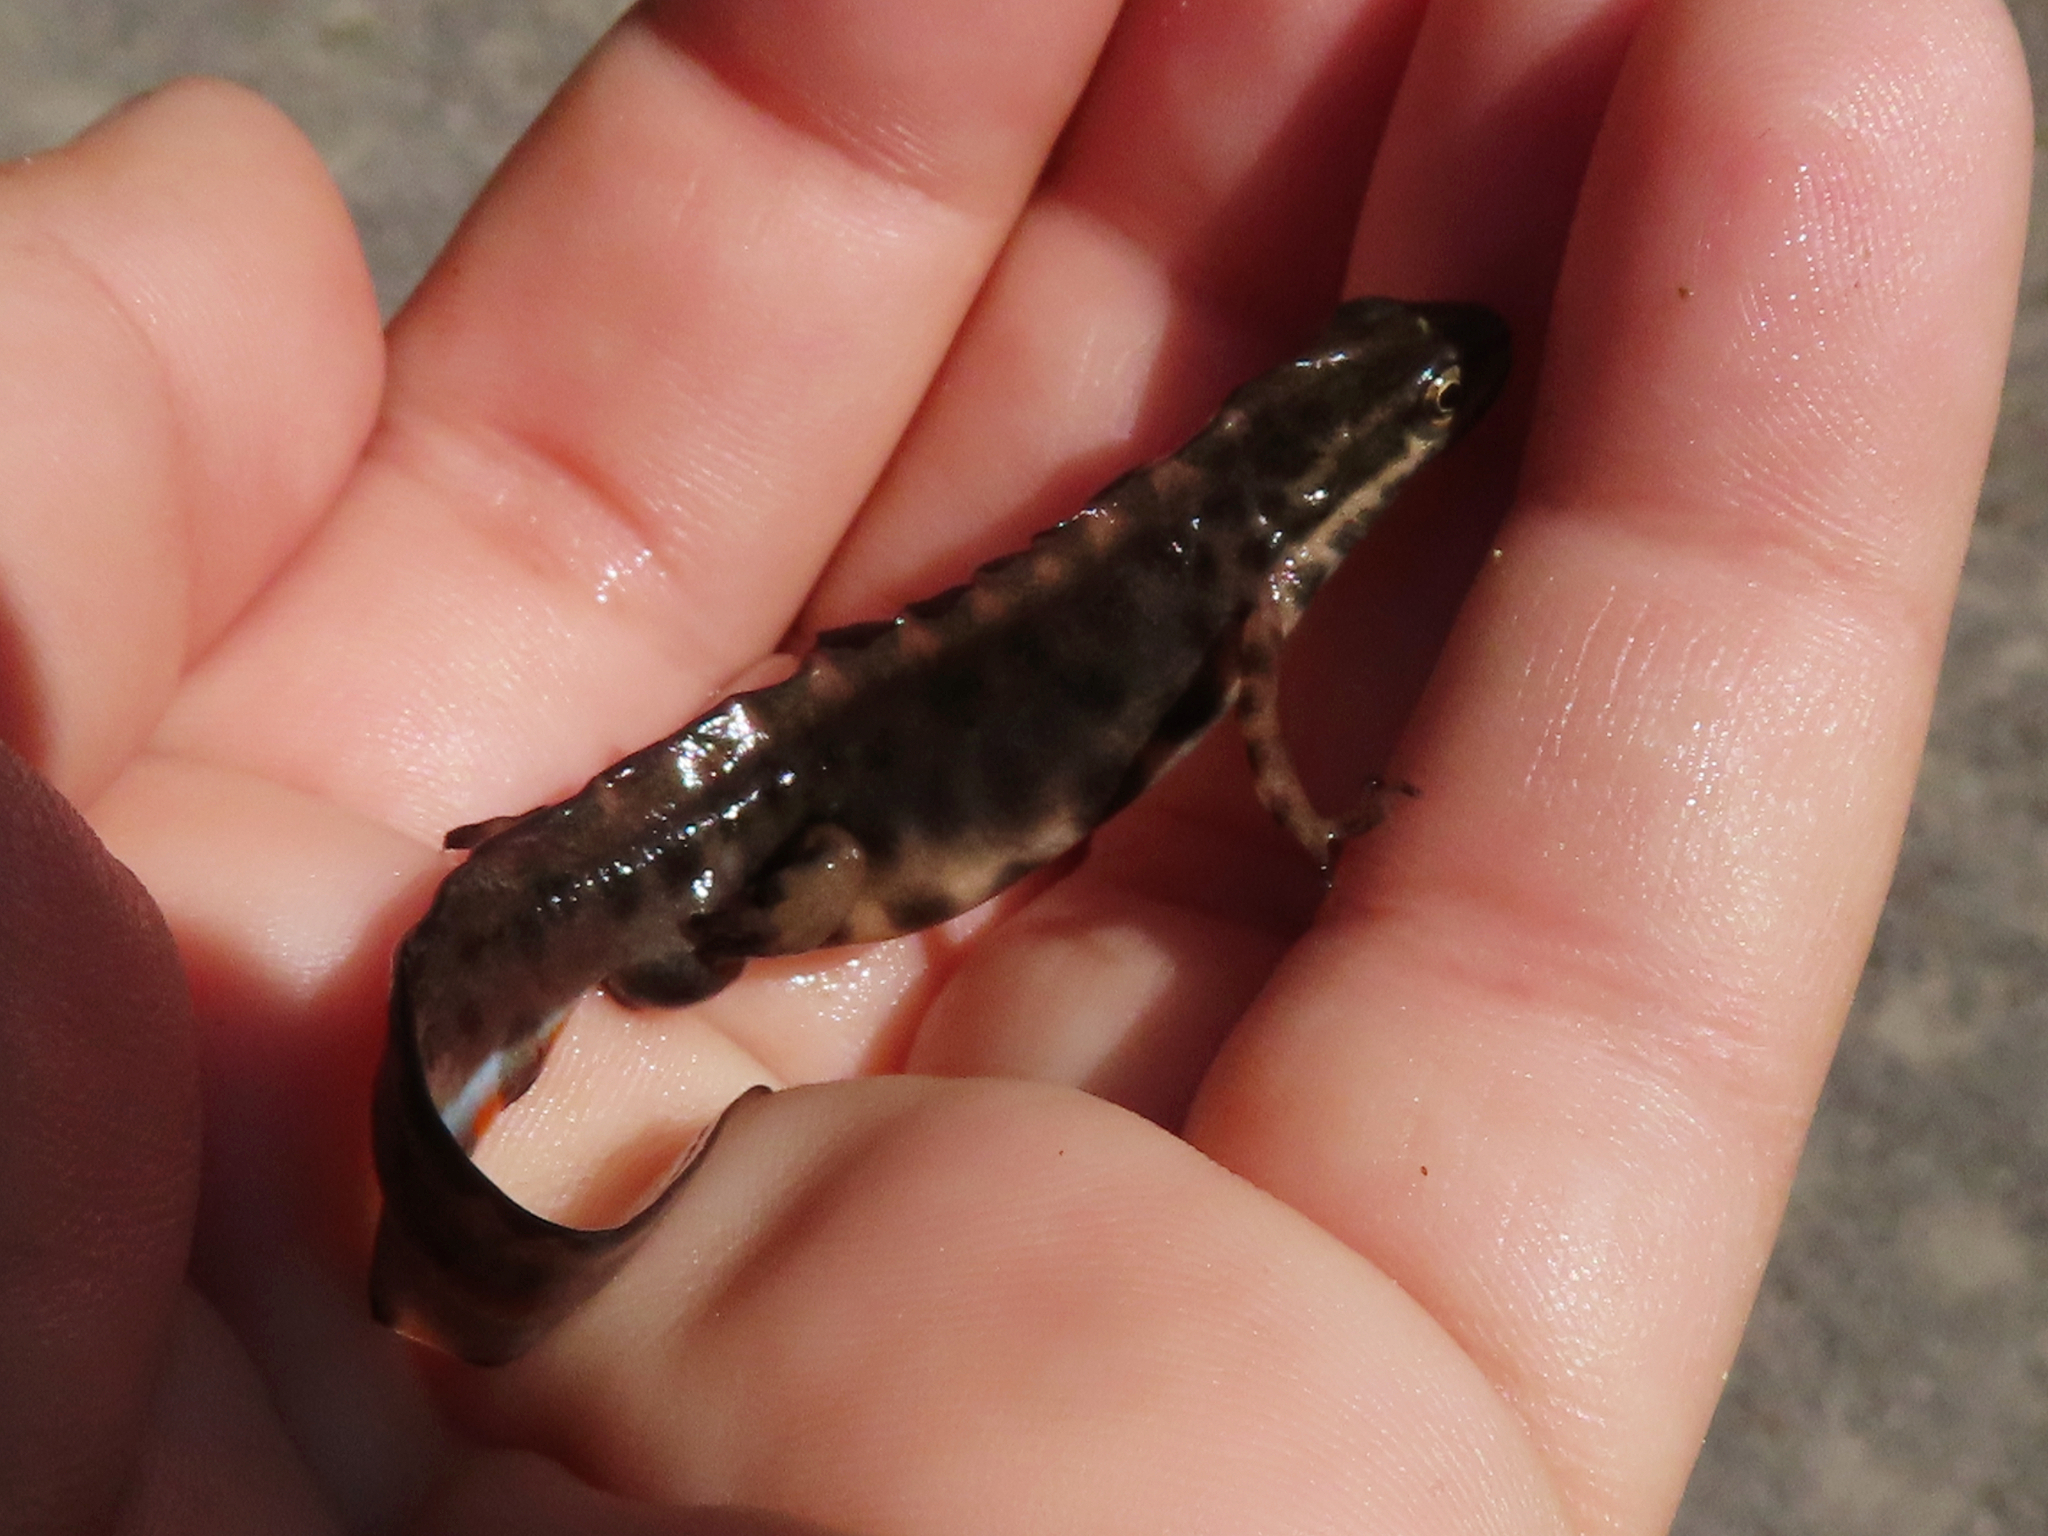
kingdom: Animalia
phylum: Chordata
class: Amphibia
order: Caudata
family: Salamandridae
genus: Lissotriton
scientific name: Lissotriton vulgaris
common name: Smooth newt
